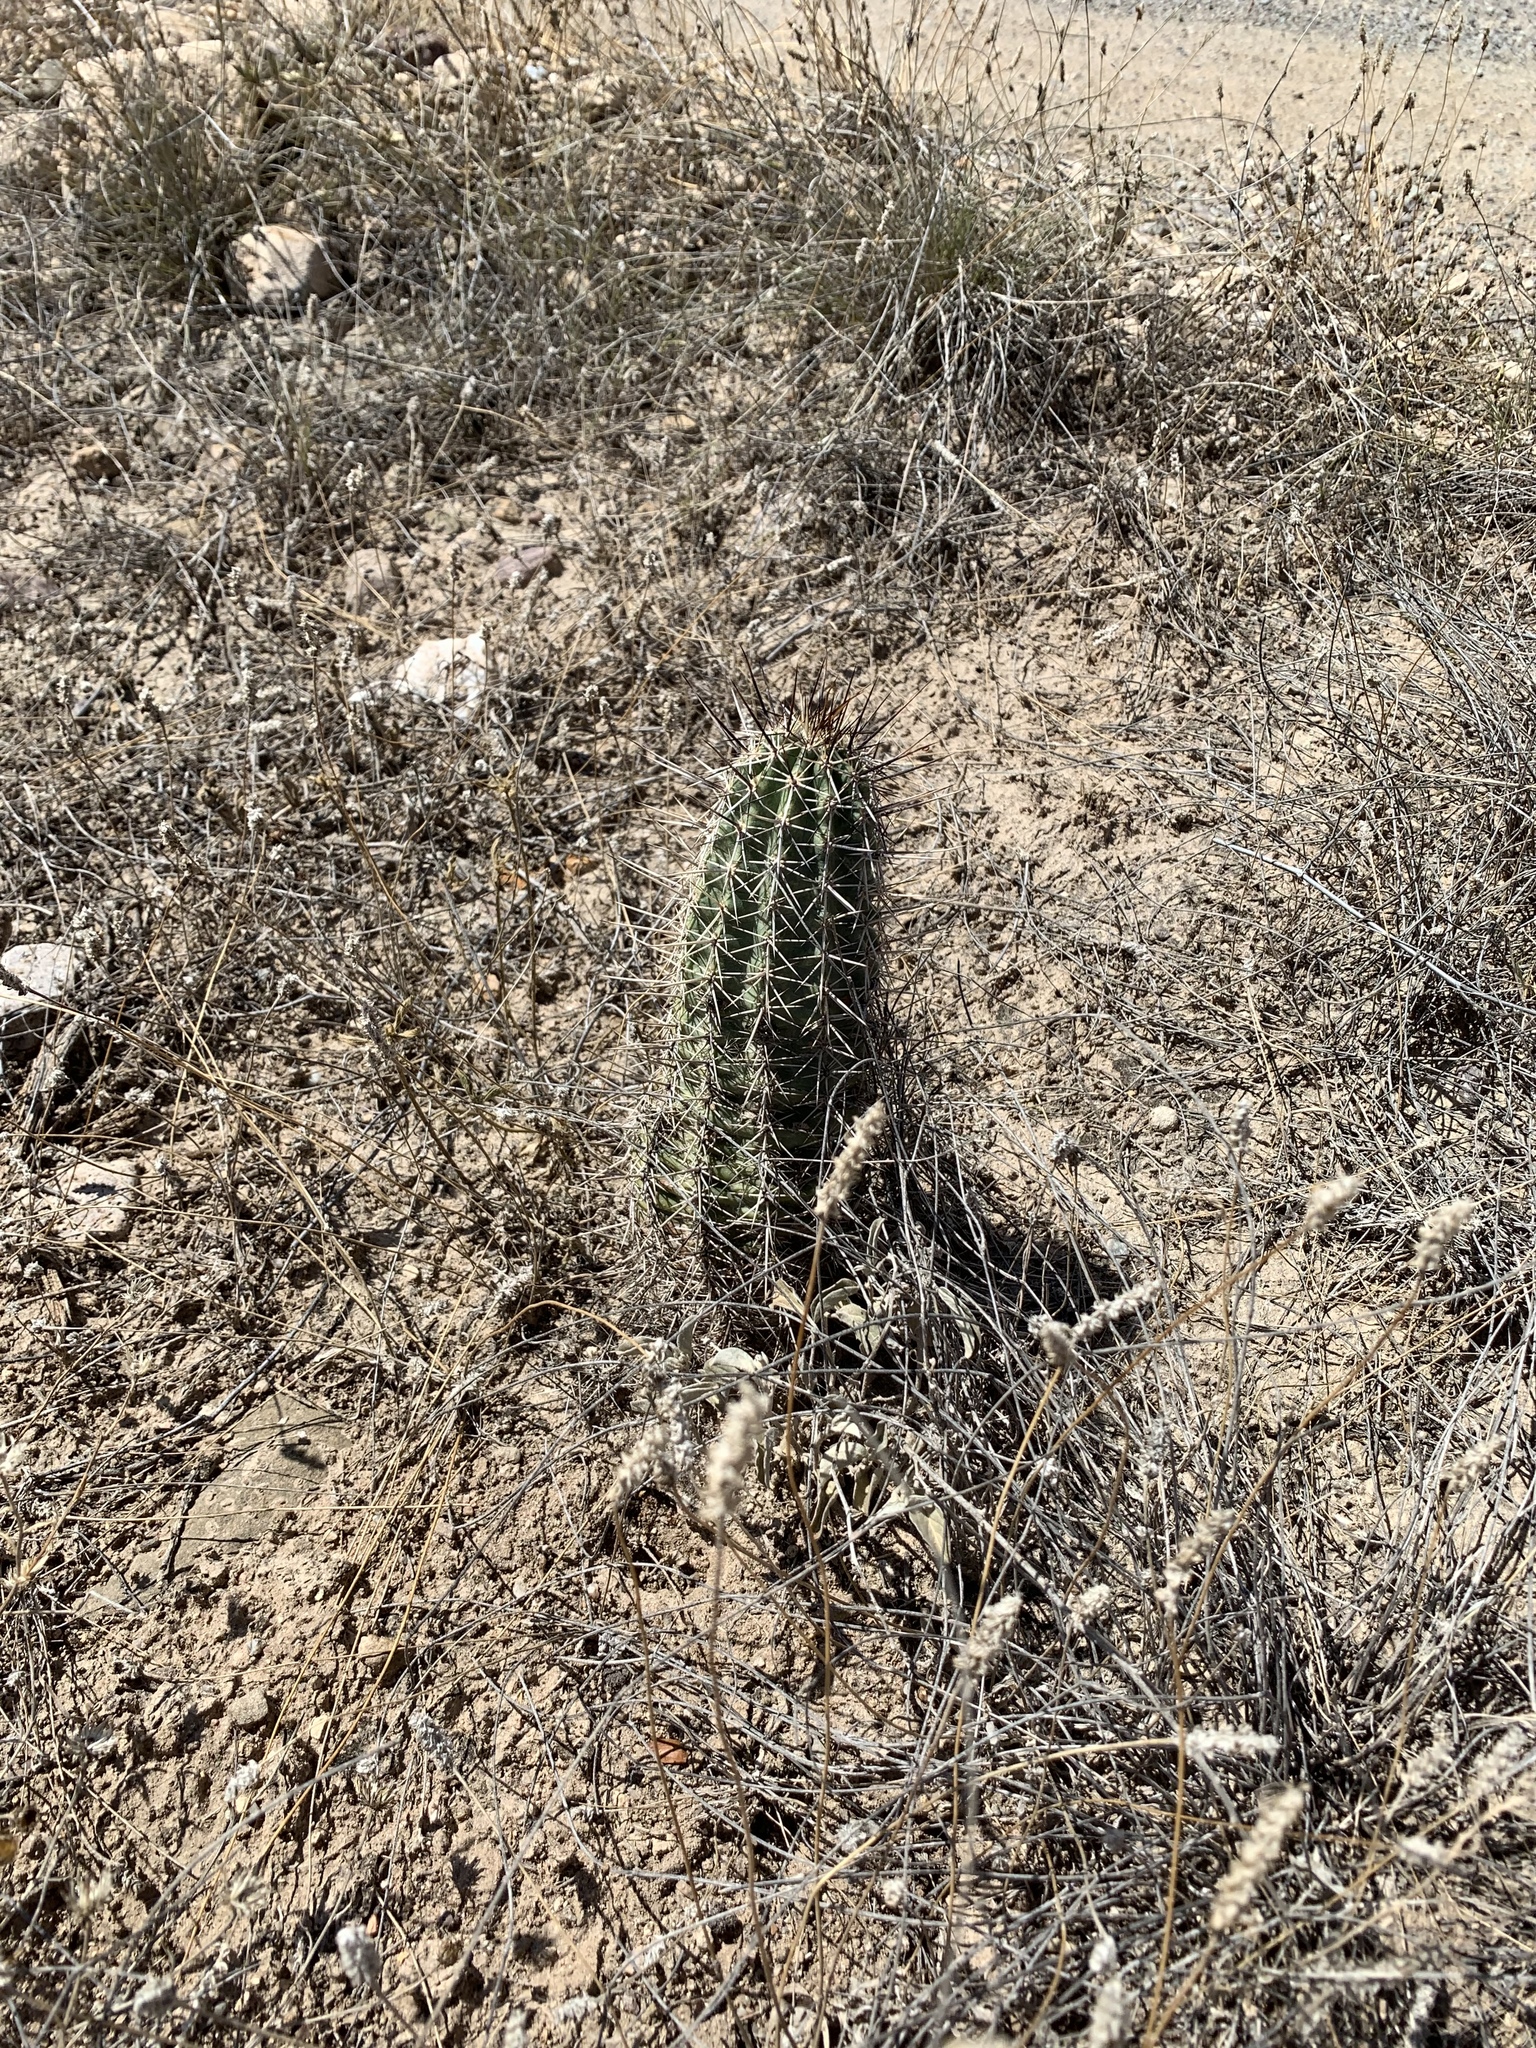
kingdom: Plantae
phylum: Tracheophyta
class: Magnoliopsida
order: Caryophyllales
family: Cactaceae
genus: Echinocereus
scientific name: Echinocereus fasciculatus
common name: Bundle hedgehog
